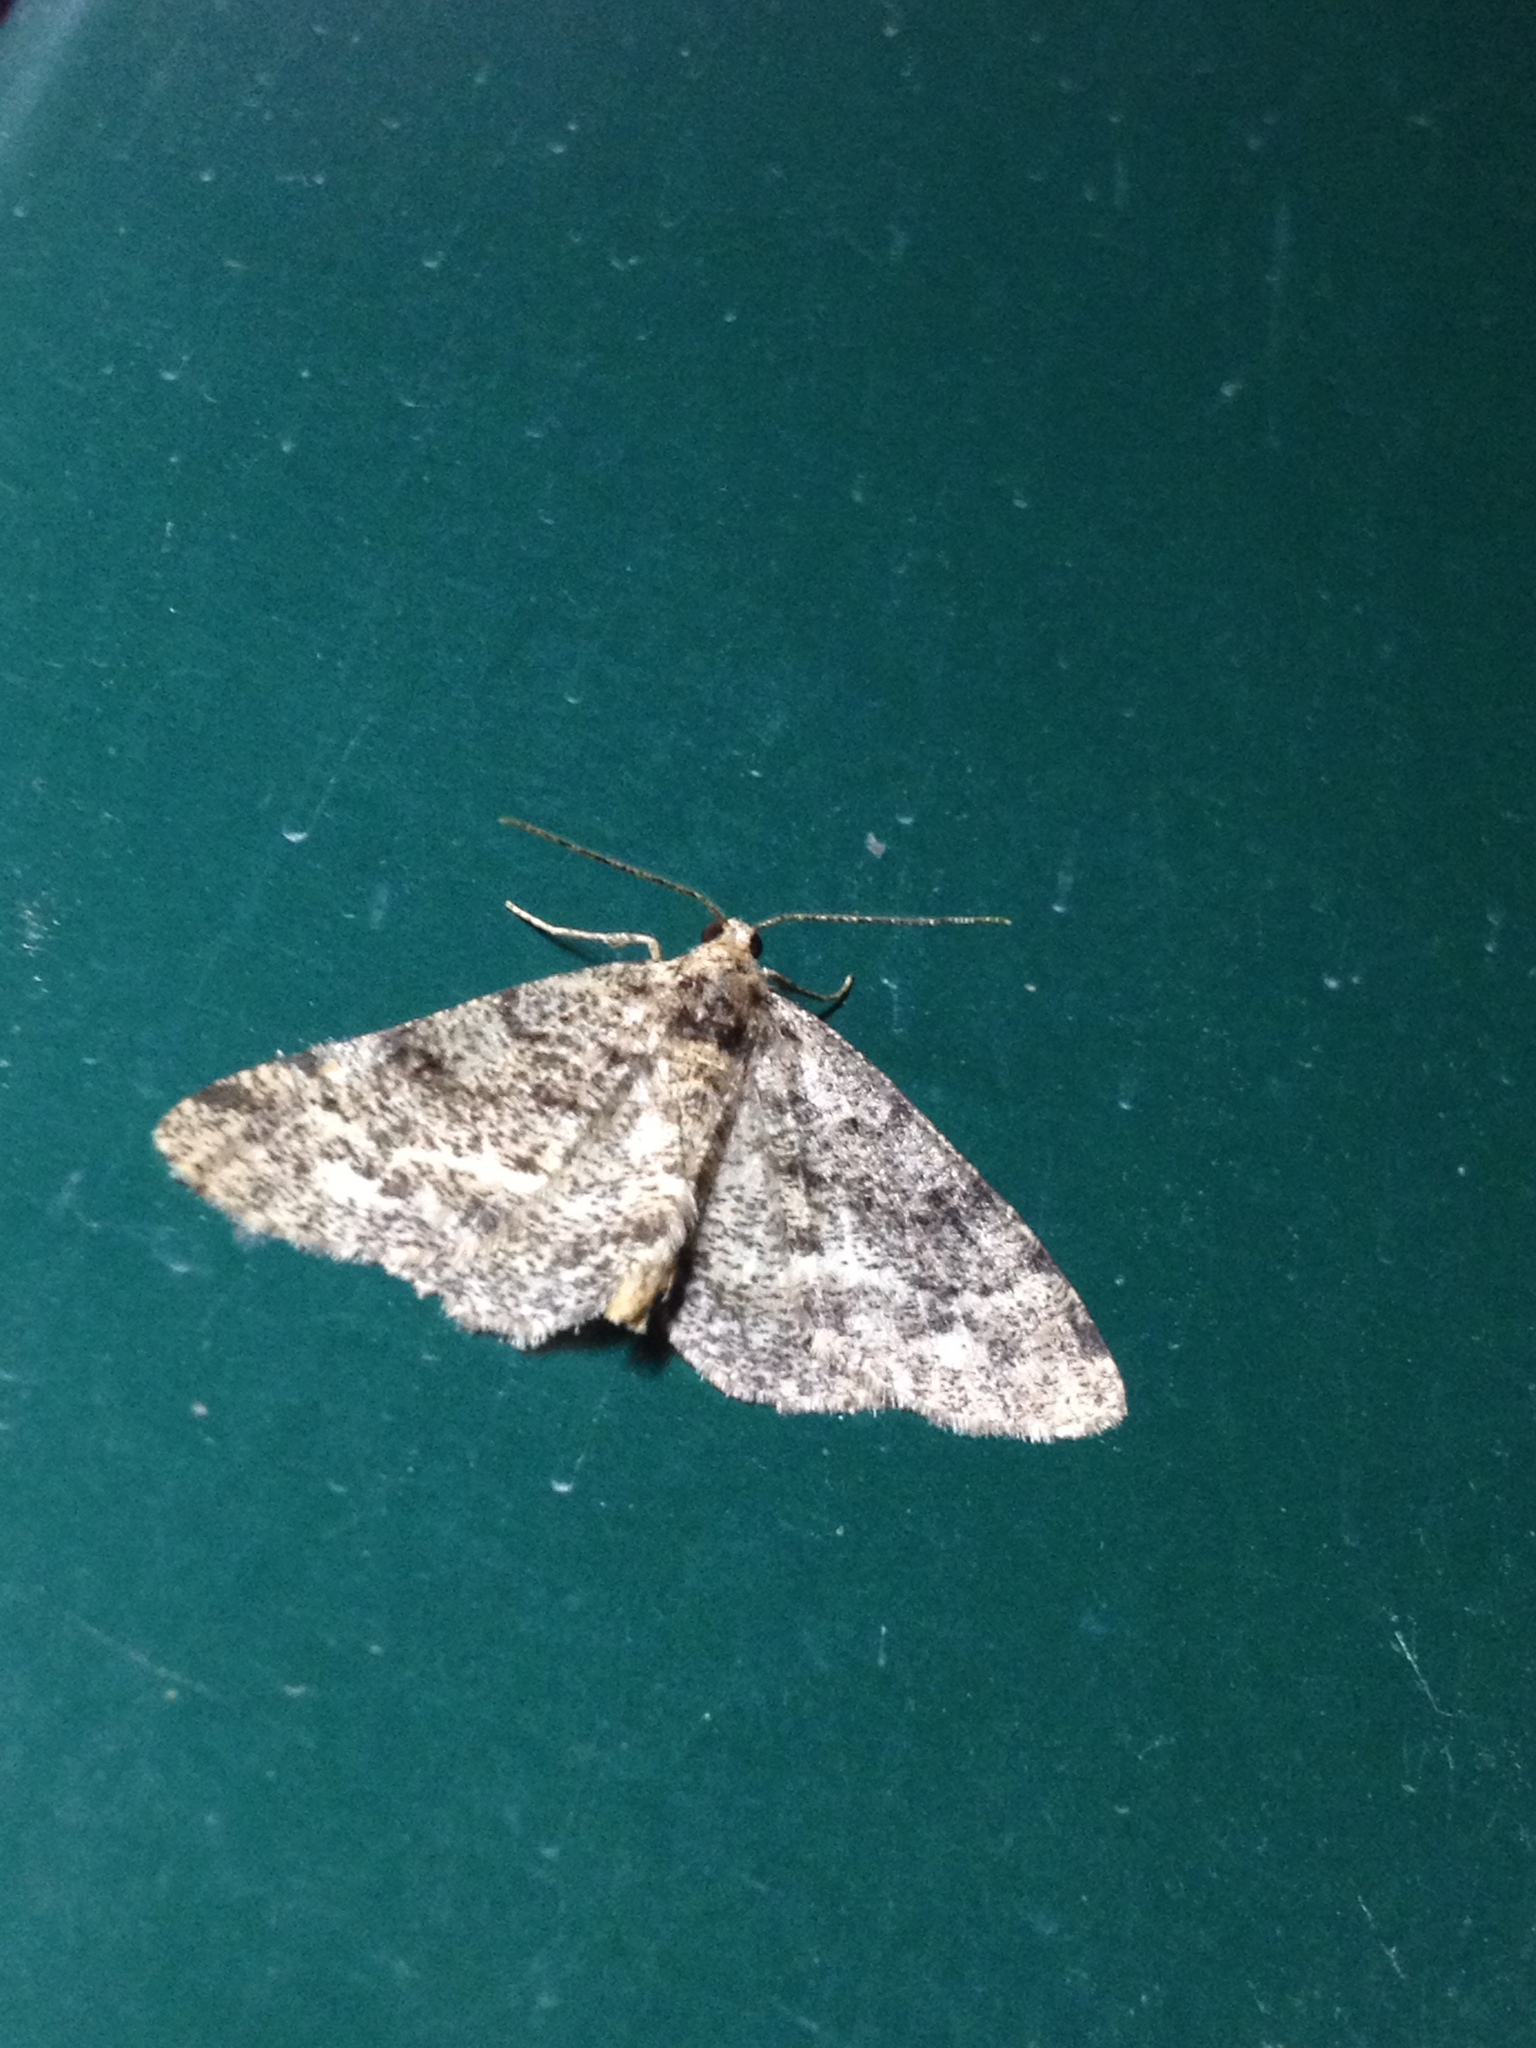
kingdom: Animalia
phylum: Arthropoda
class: Insecta
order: Lepidoptera
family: Geometridae
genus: Parectropis
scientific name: Parectropis similaria
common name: Brindled white-spot
